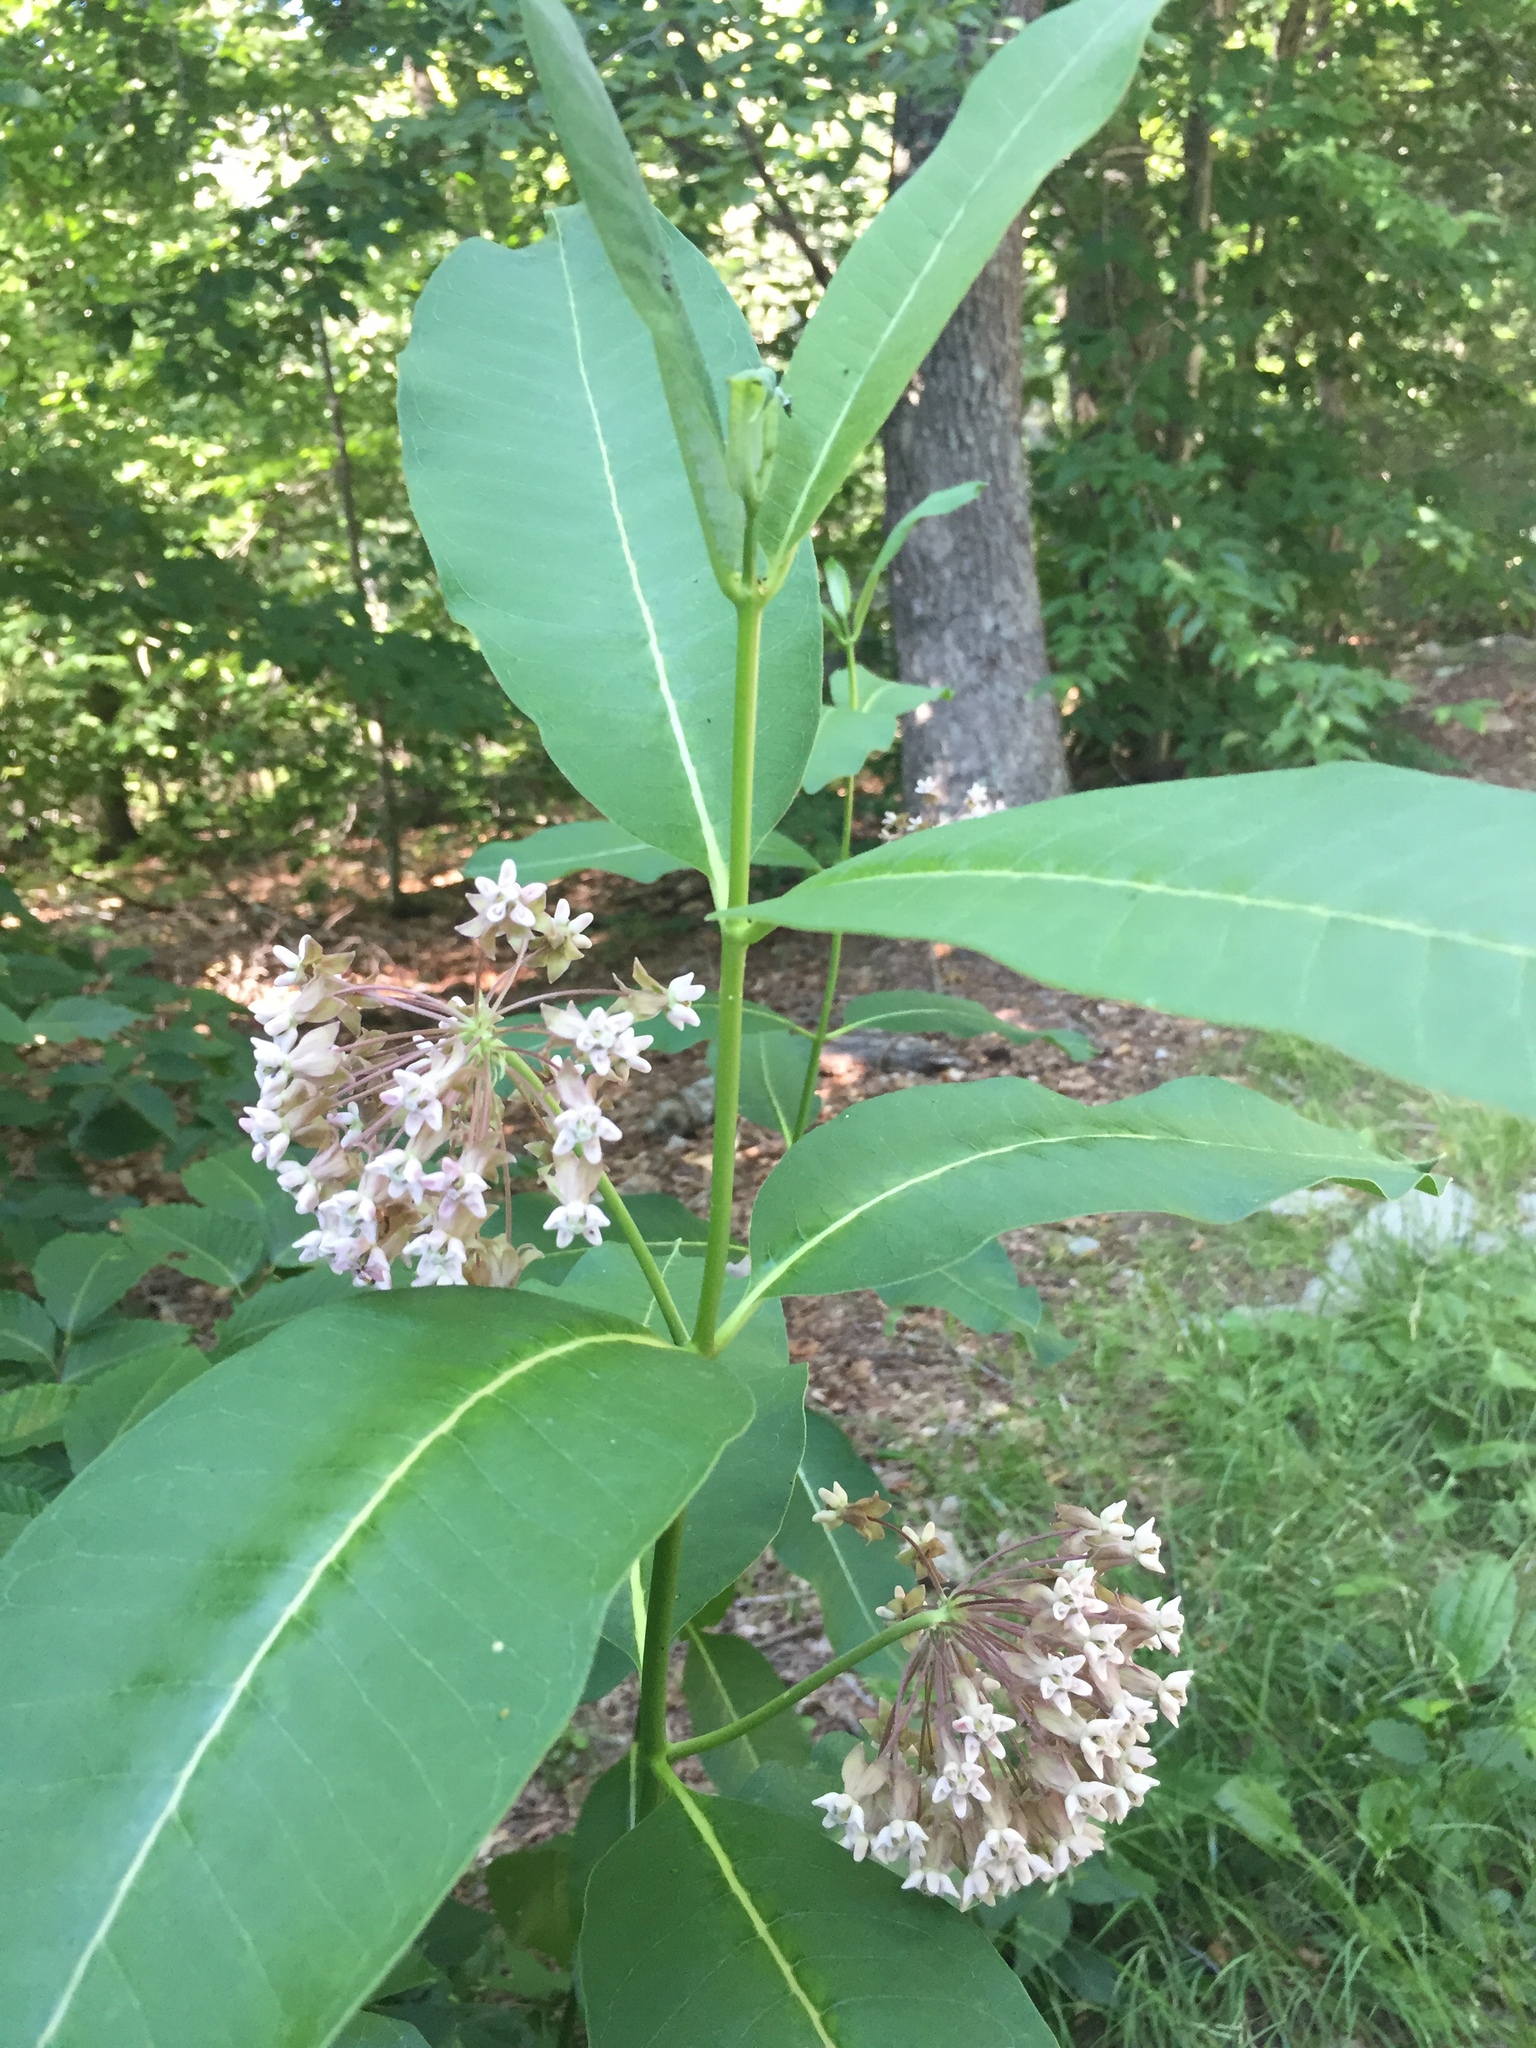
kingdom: Plantae
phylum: Tracheophyta
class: Magnoliopsida
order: Gentianales
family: Apocynaceae
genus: Asclepias
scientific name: Asclepias syriaca
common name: Common milkweed
